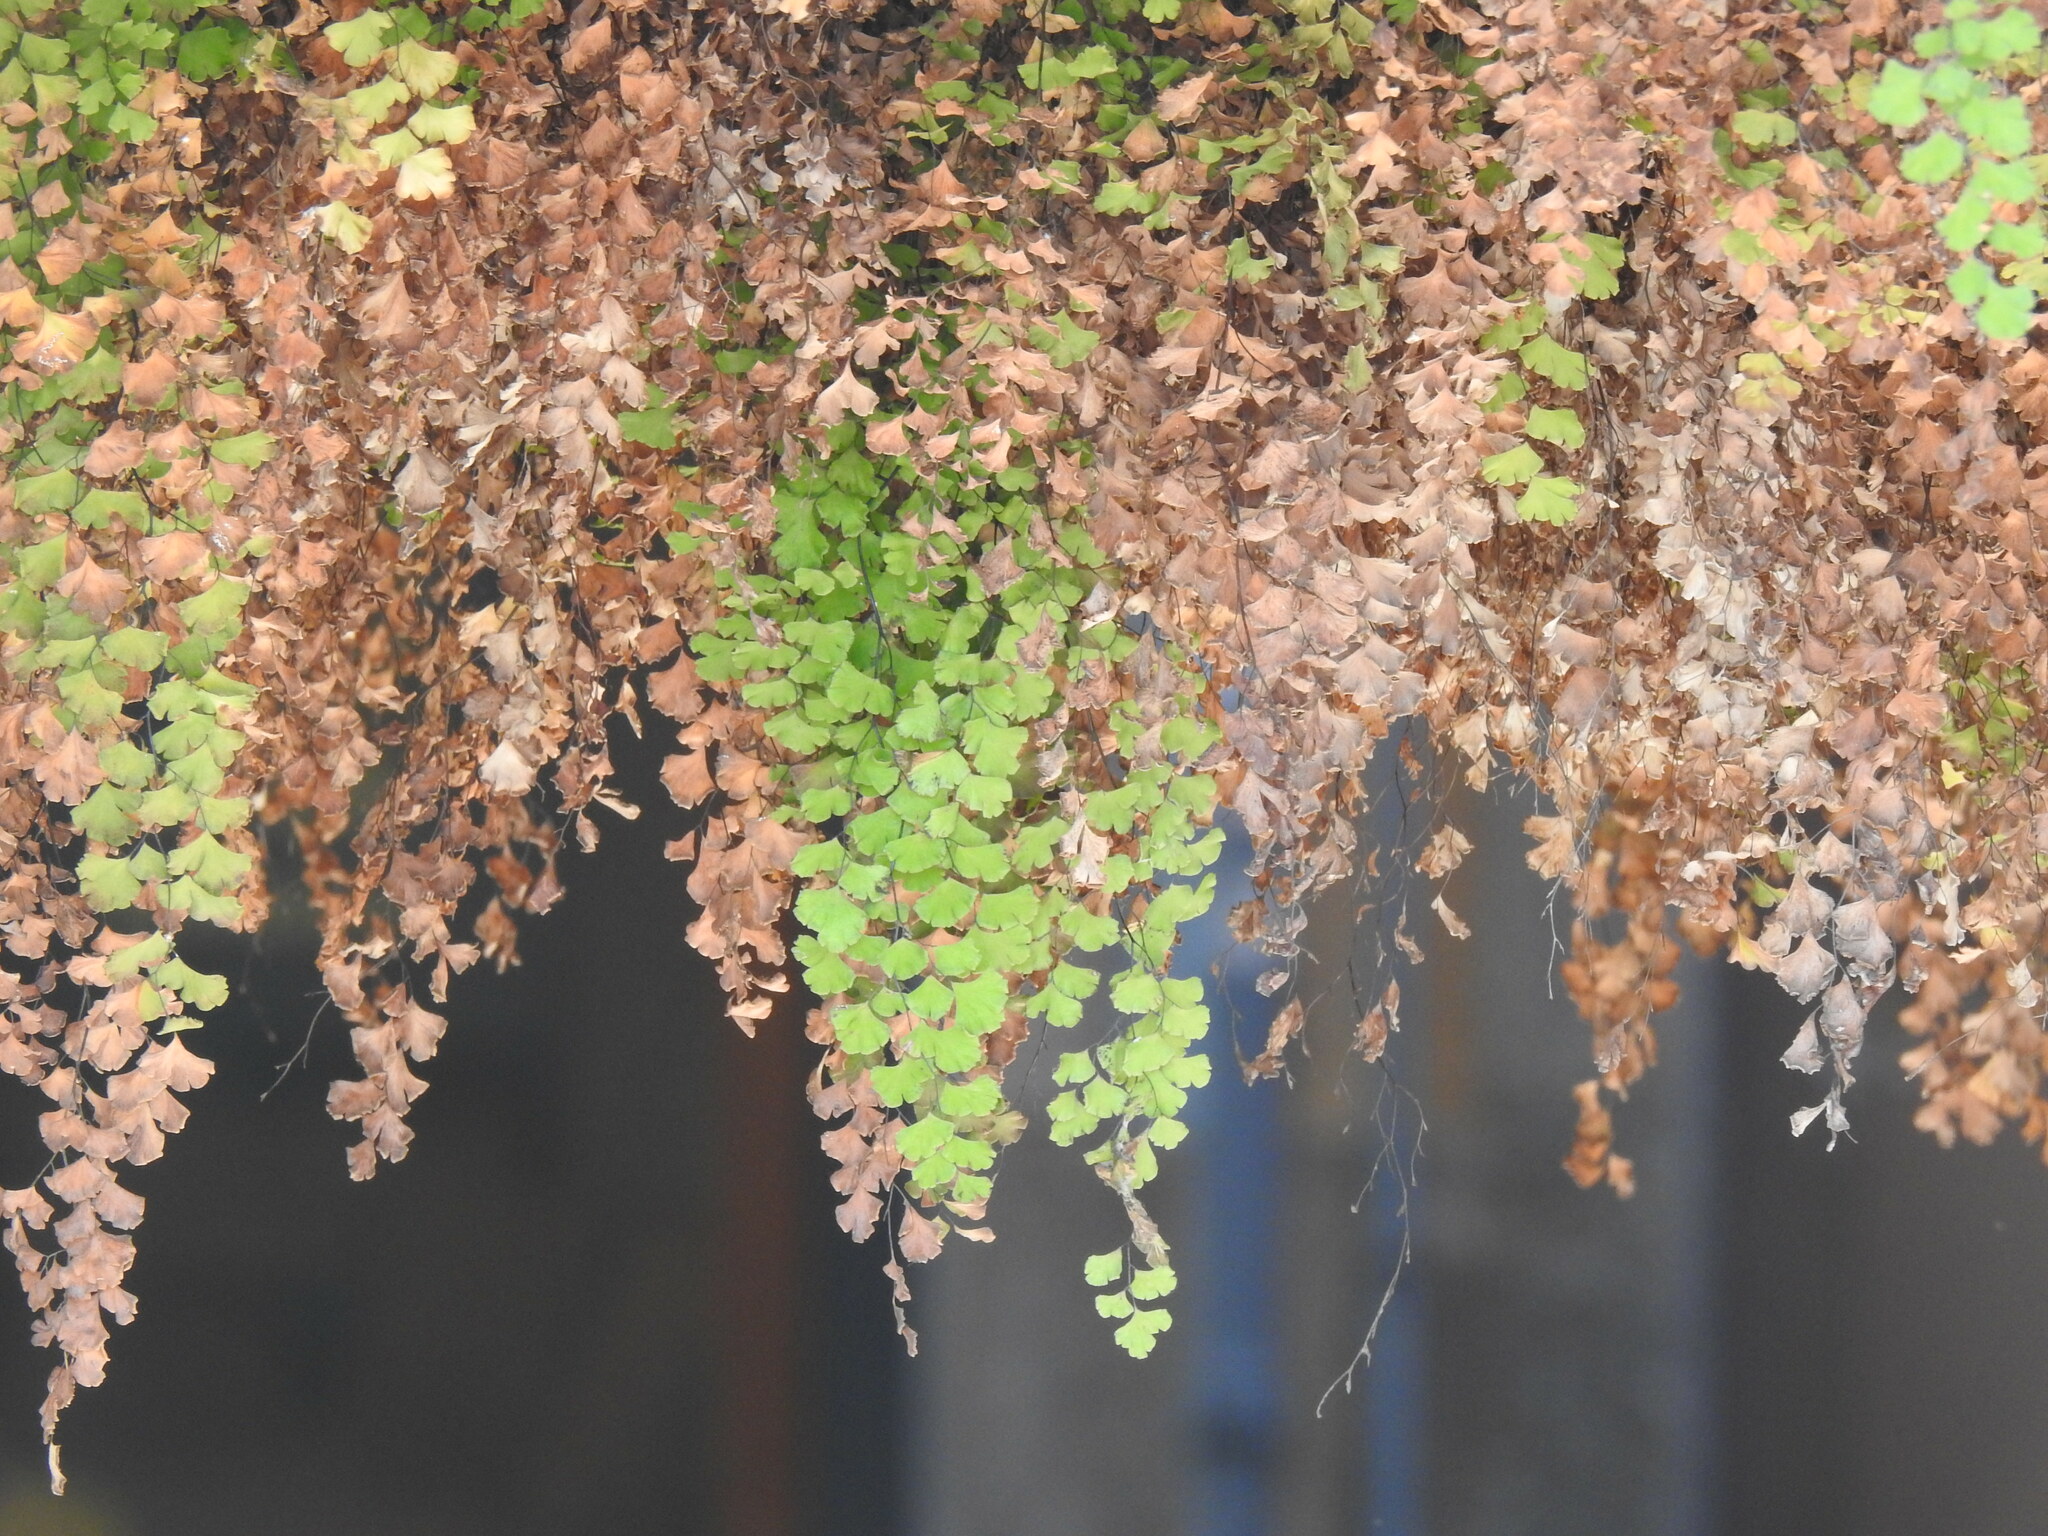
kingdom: Plantae
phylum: Tracheophyta
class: Polypodiopsida
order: Polypodiales
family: Pteridaceae
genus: Adiantum
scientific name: Adiantum capillus-veneris
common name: Maidenhair fern
